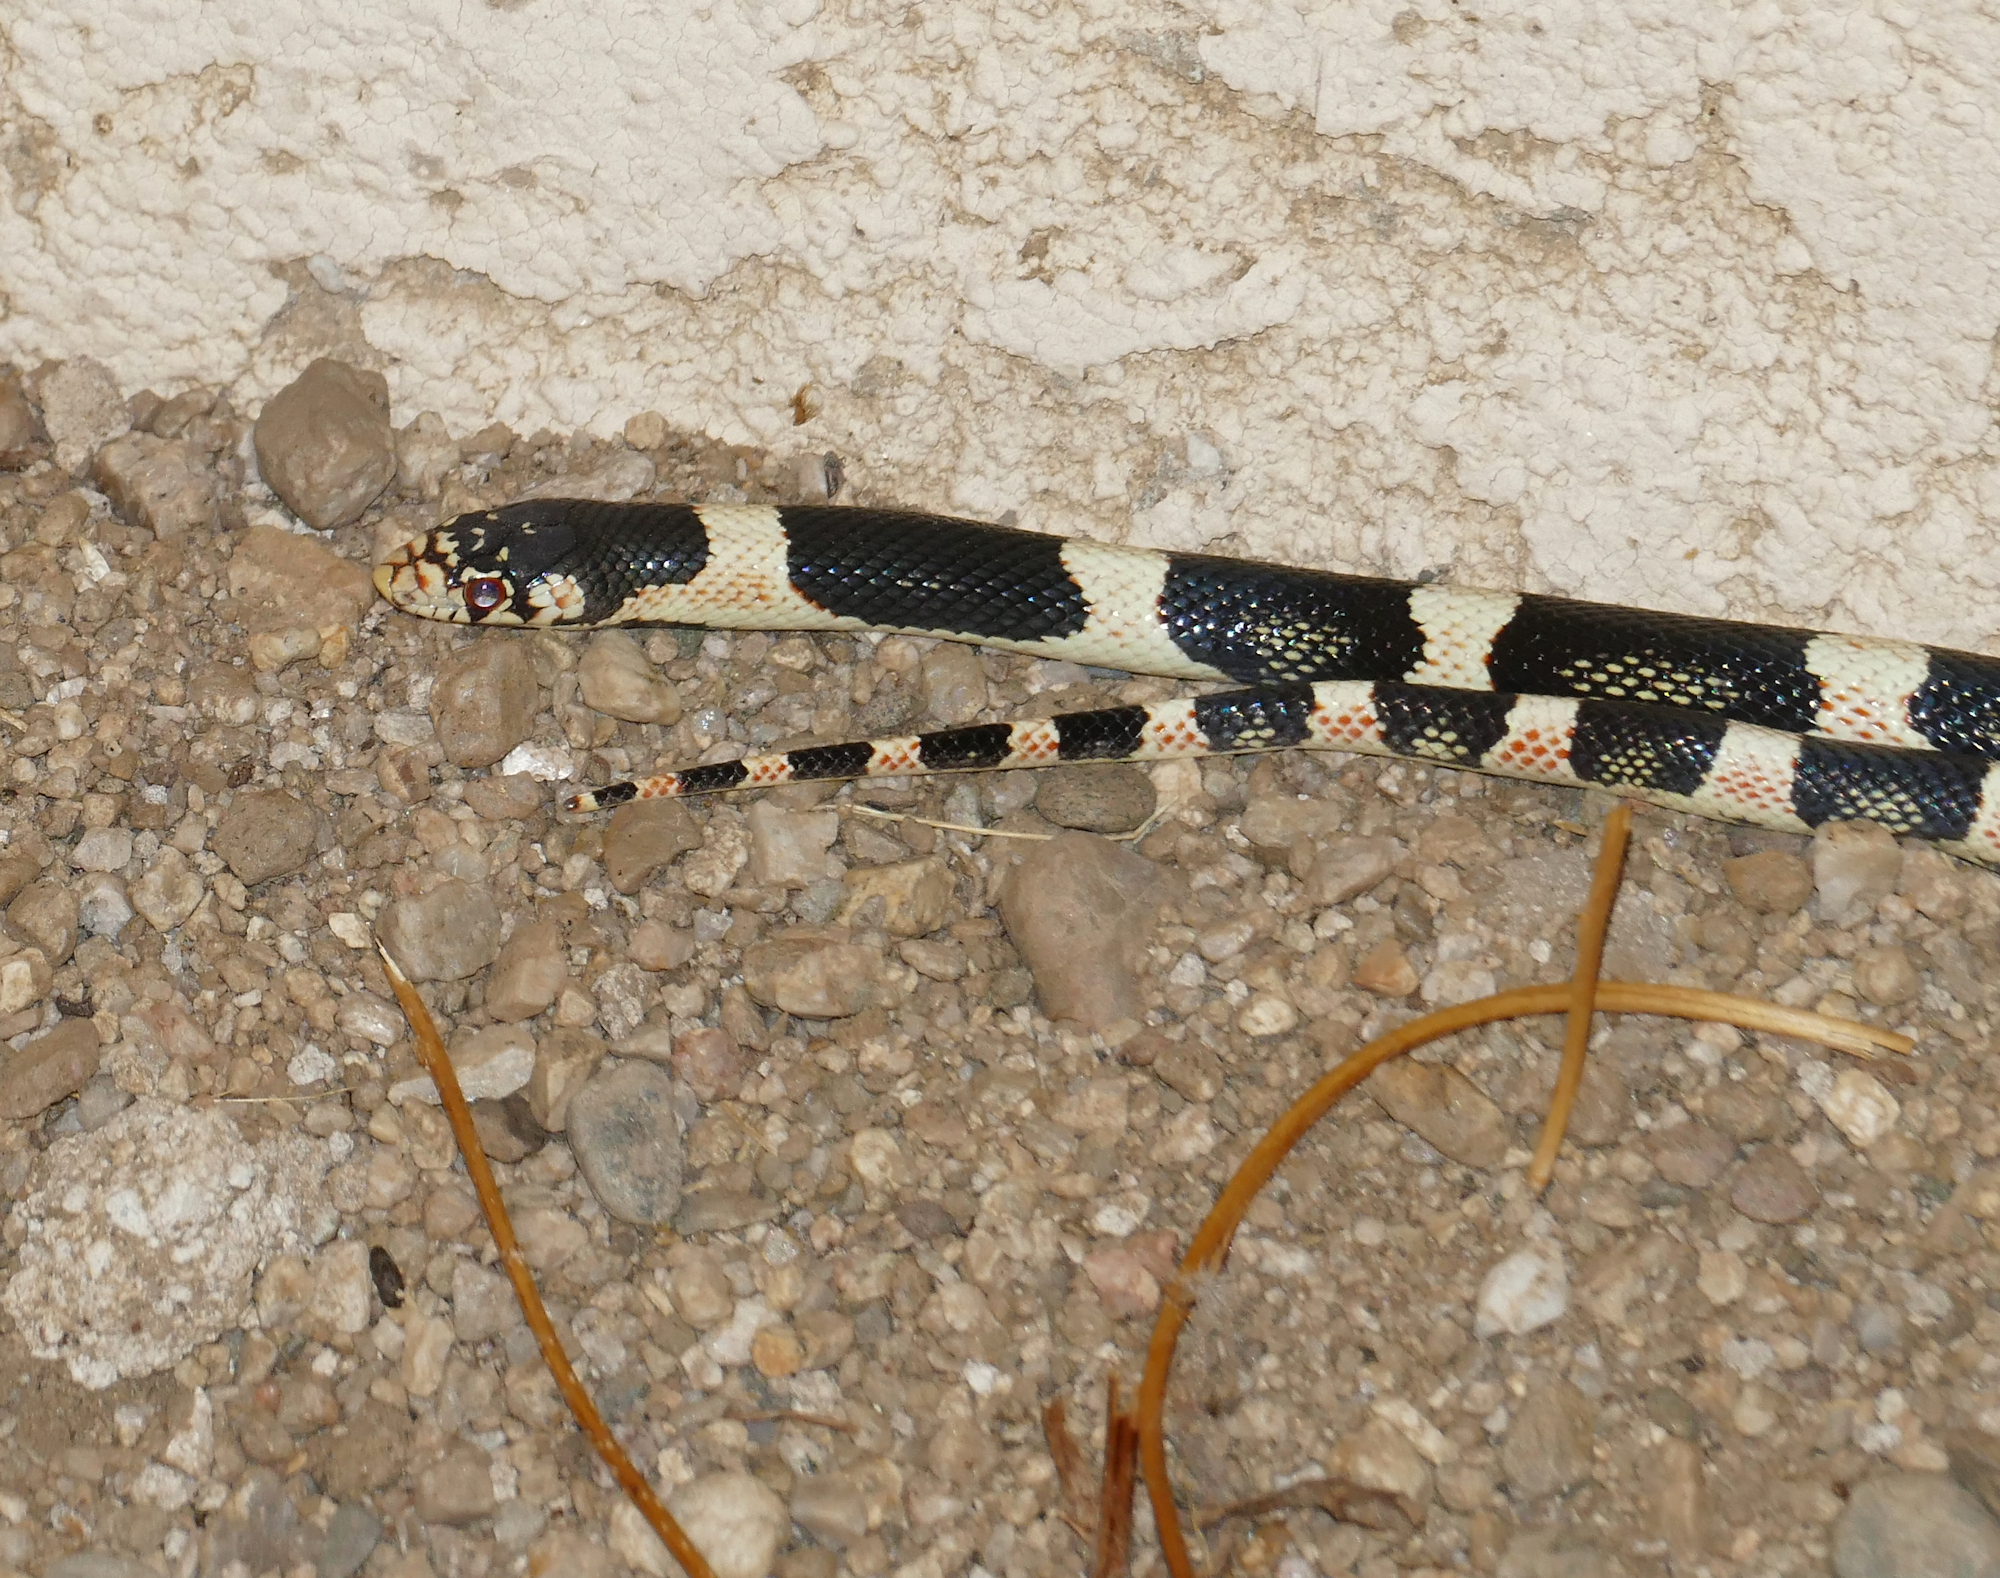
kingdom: Animalia
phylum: Chordata
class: Squamata
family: Colubridae
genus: Rhinocheilus
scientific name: Rhinocheilus lecontei
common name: Longnose snake
